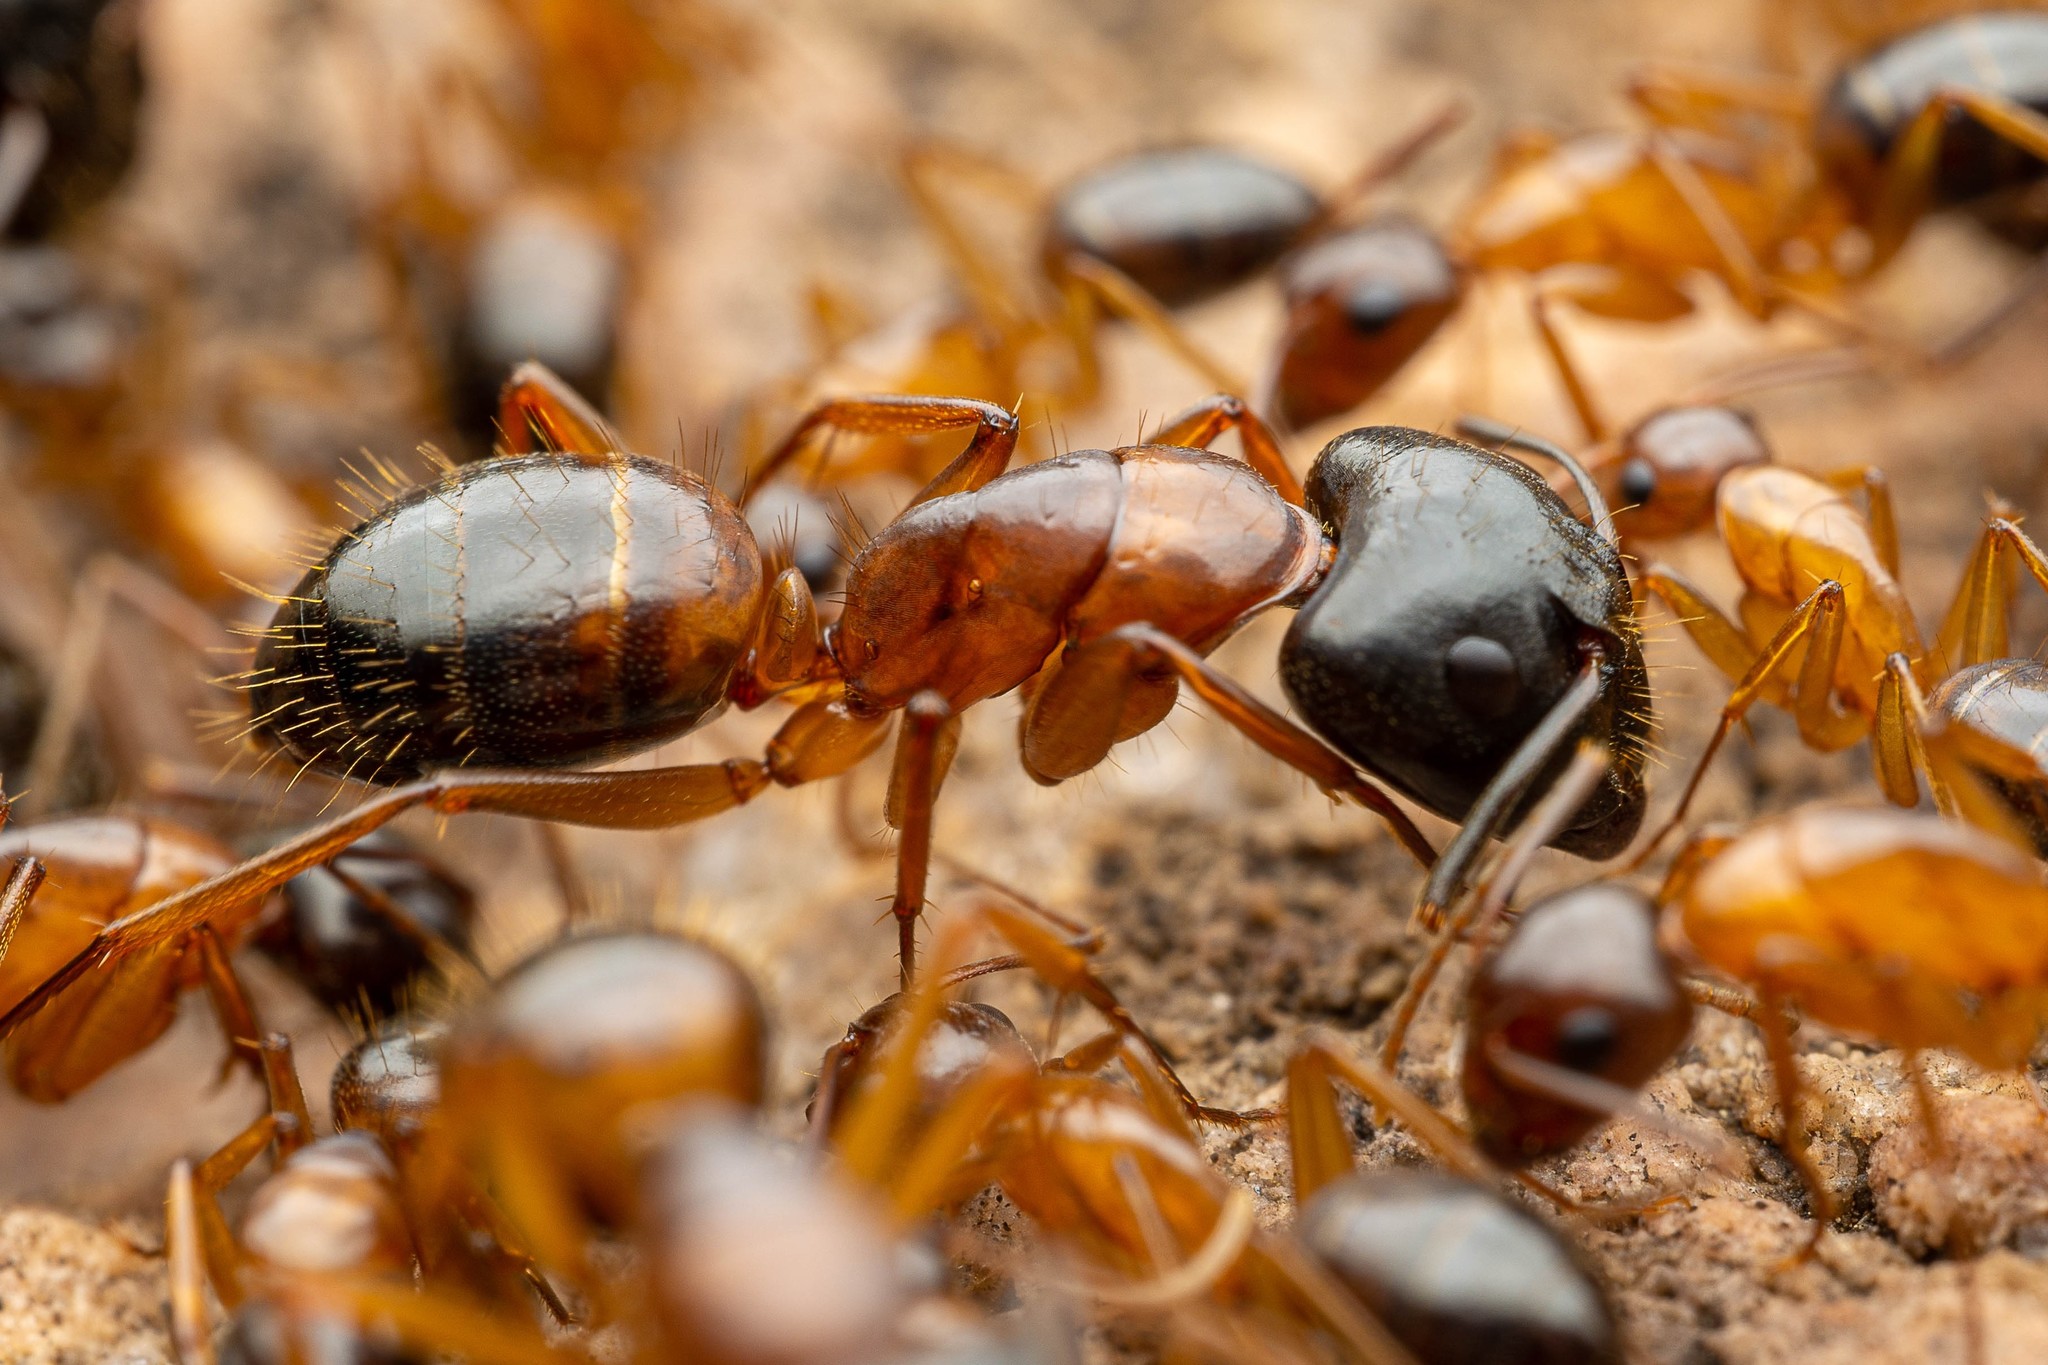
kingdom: Animalia
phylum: Arthropoda
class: Insecta
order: Hymenoptera
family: Formicidae
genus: Camponotus
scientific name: Camponotus sansabeanus
